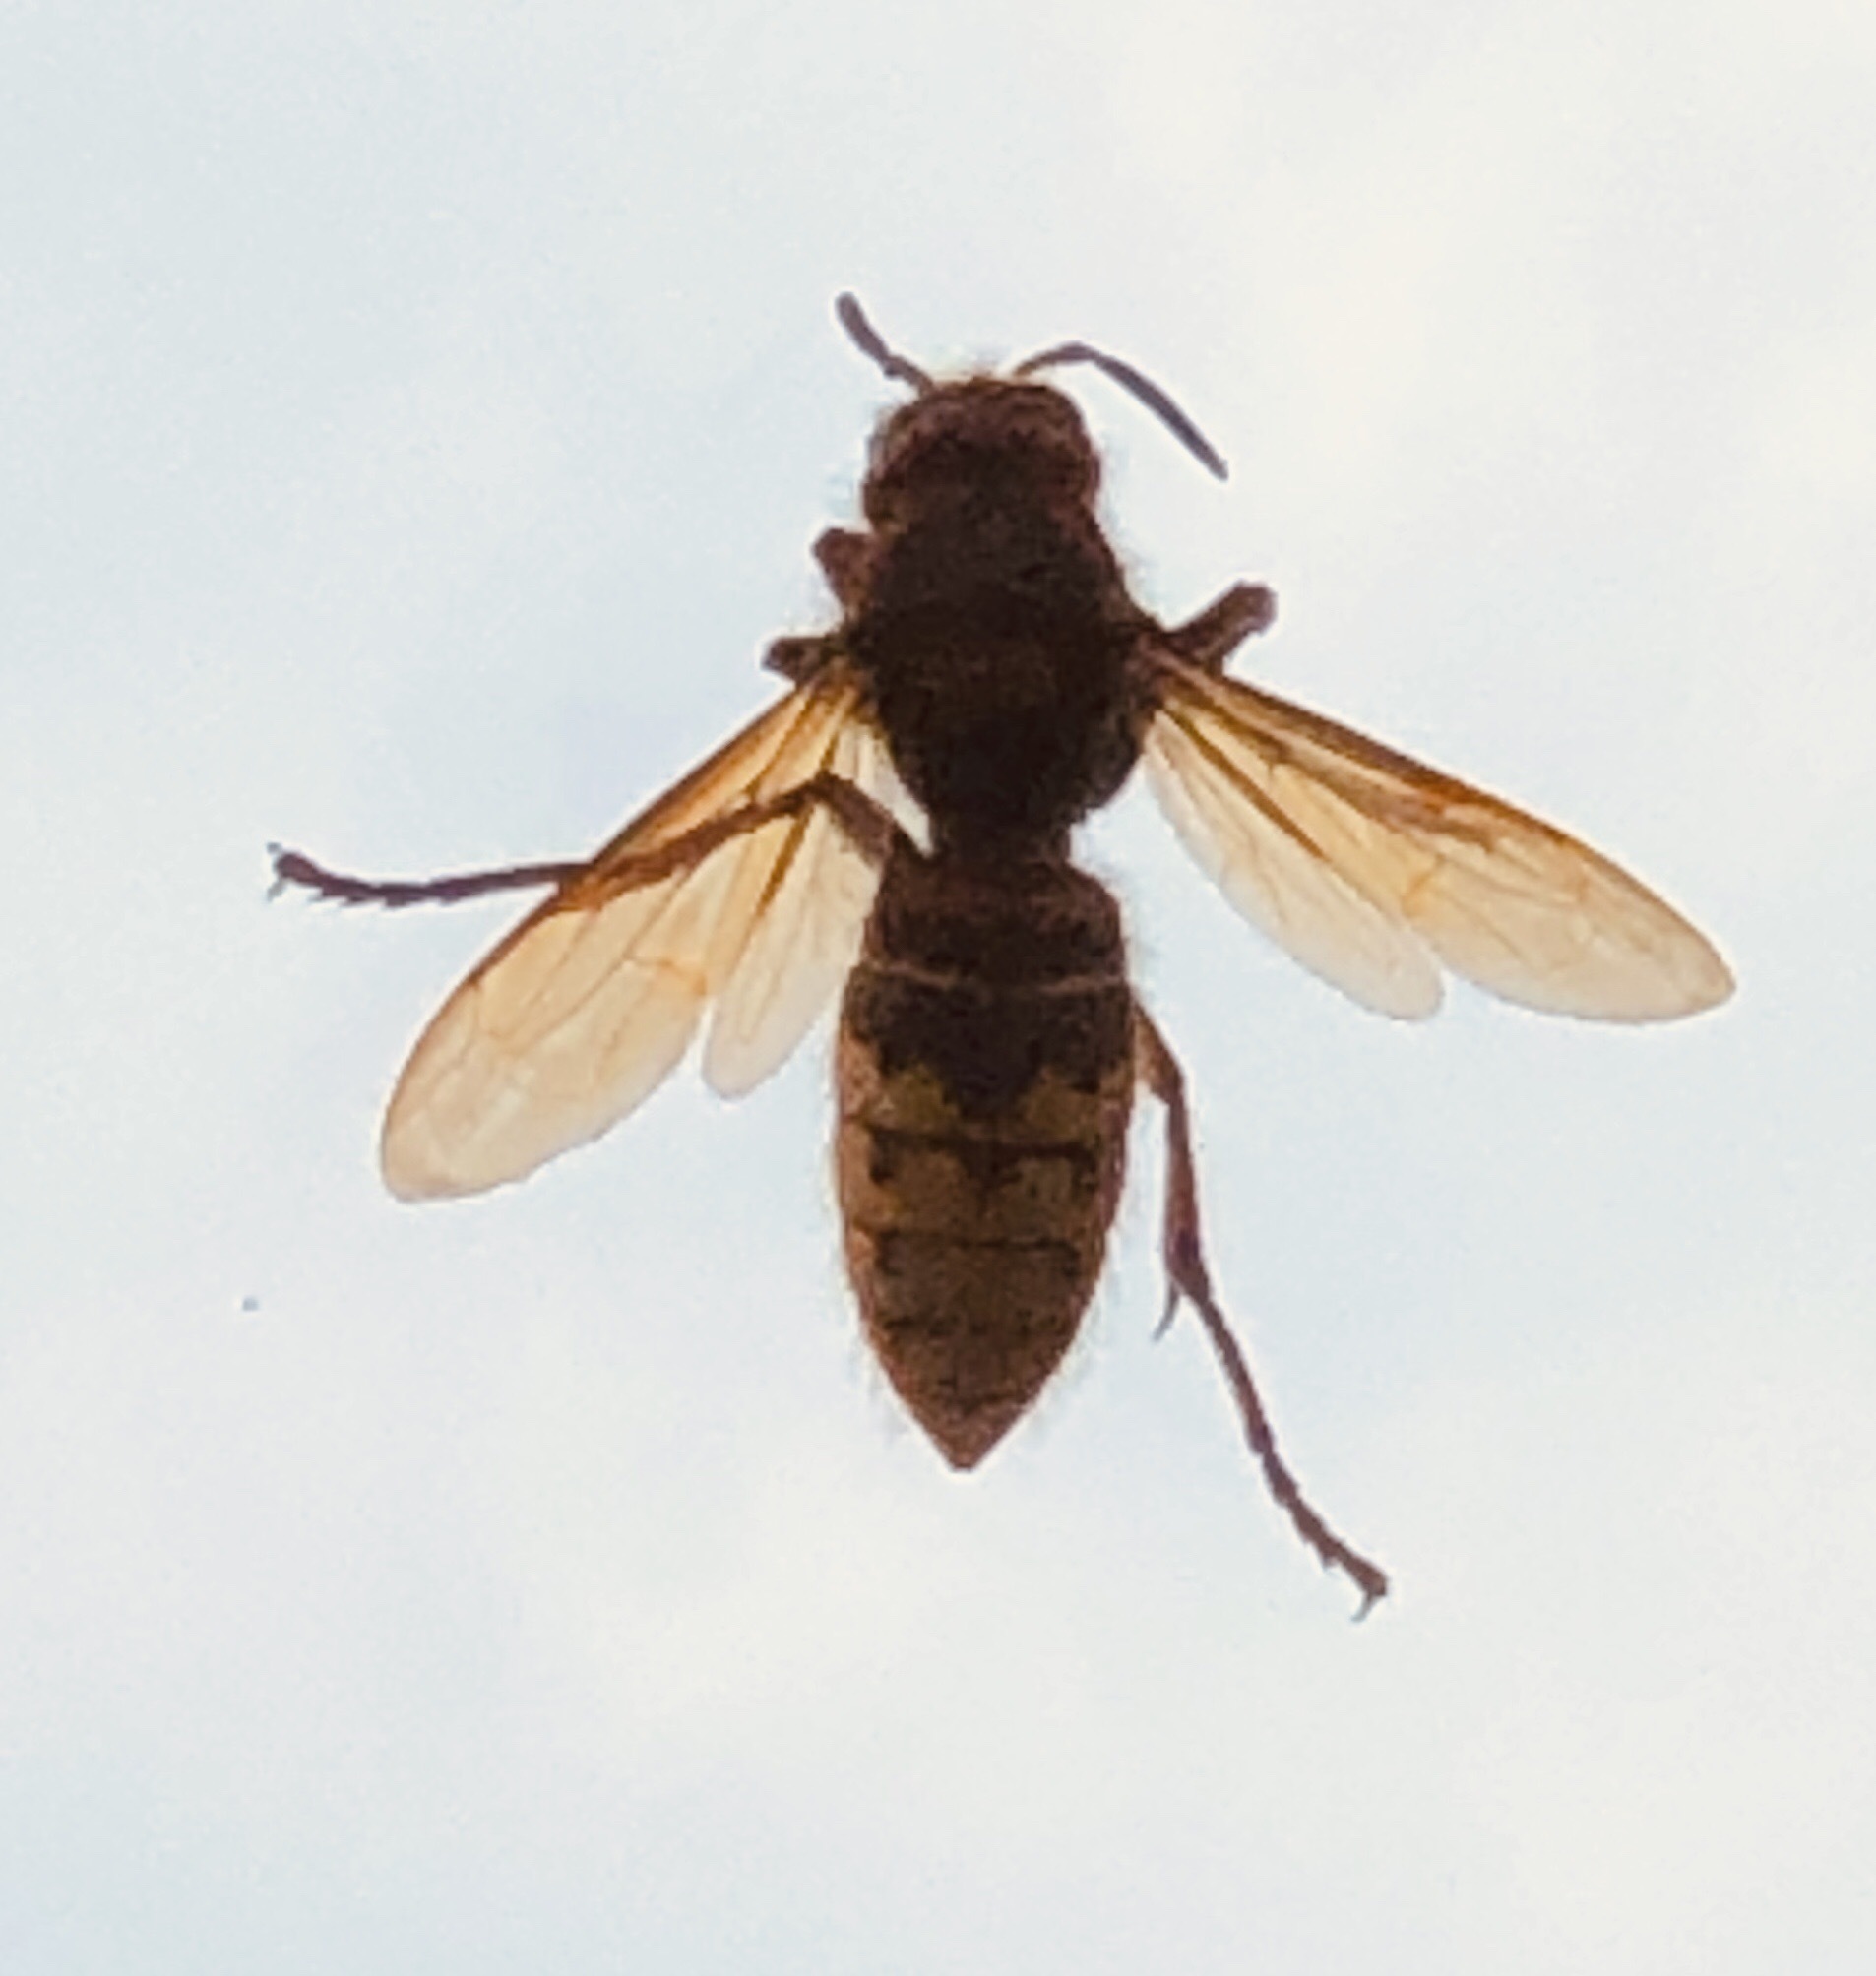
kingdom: Animalia
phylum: Arthropoda
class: Insecta
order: Hymenoptera
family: Vespidae
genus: Vespa
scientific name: Vespa crabro
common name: Hornet
